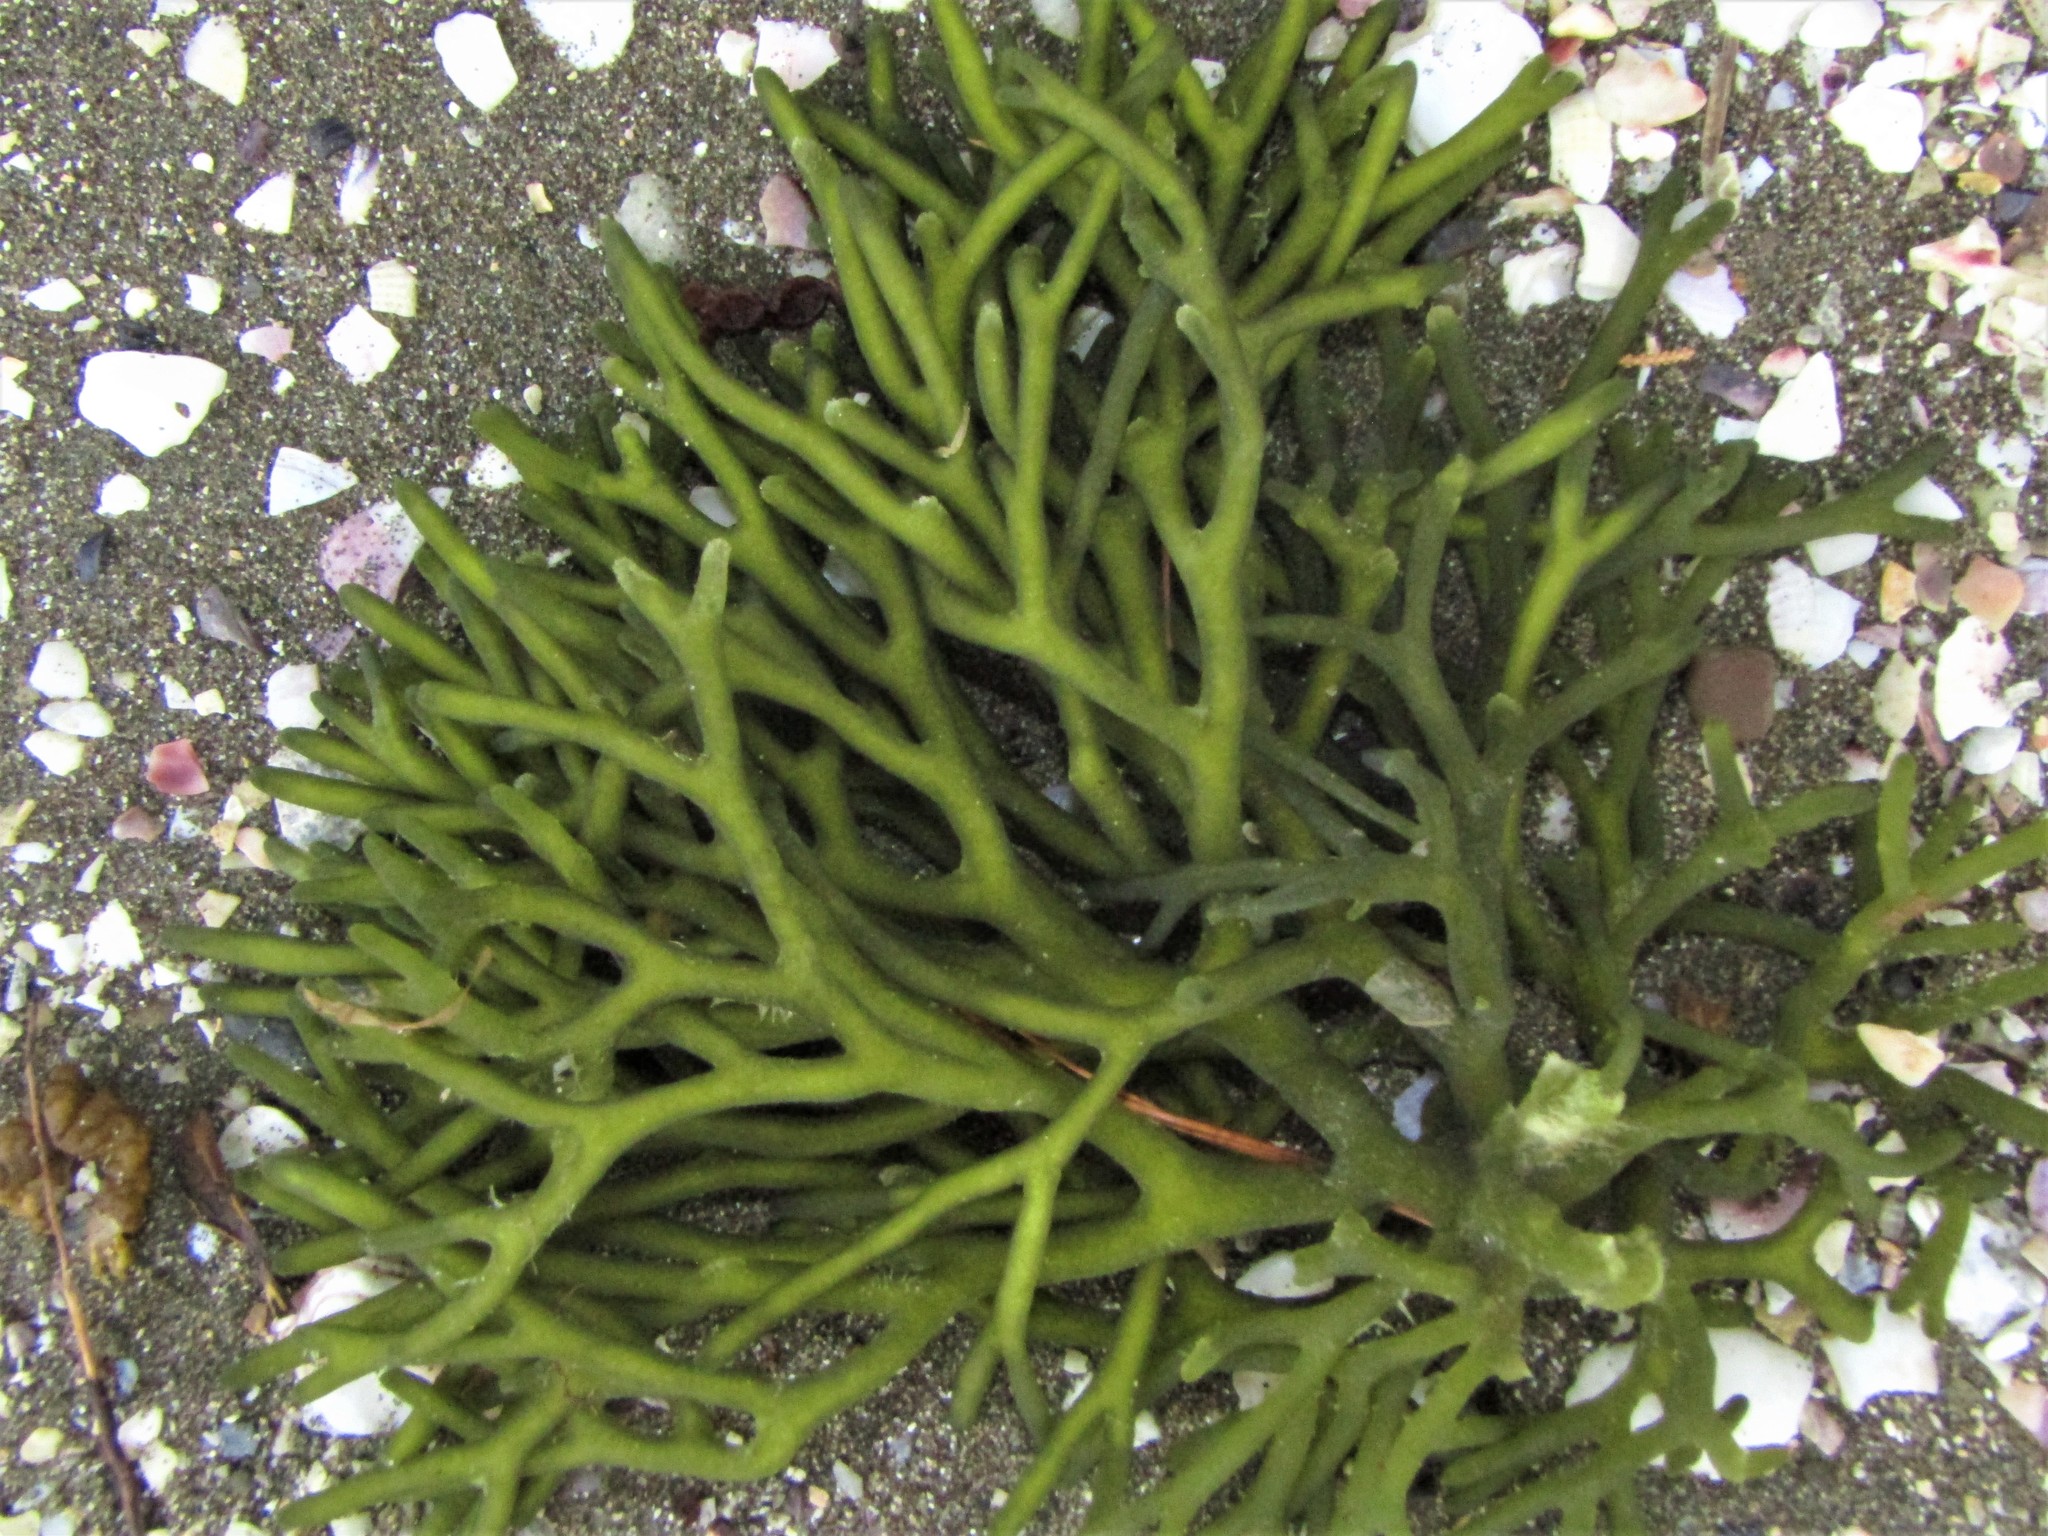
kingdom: Plantae
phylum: Chlorophyta
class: Ulvophyceae
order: Bryopsidales
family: Codiaceae
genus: Codium
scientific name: Codium fragile
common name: Dead man's fingers
